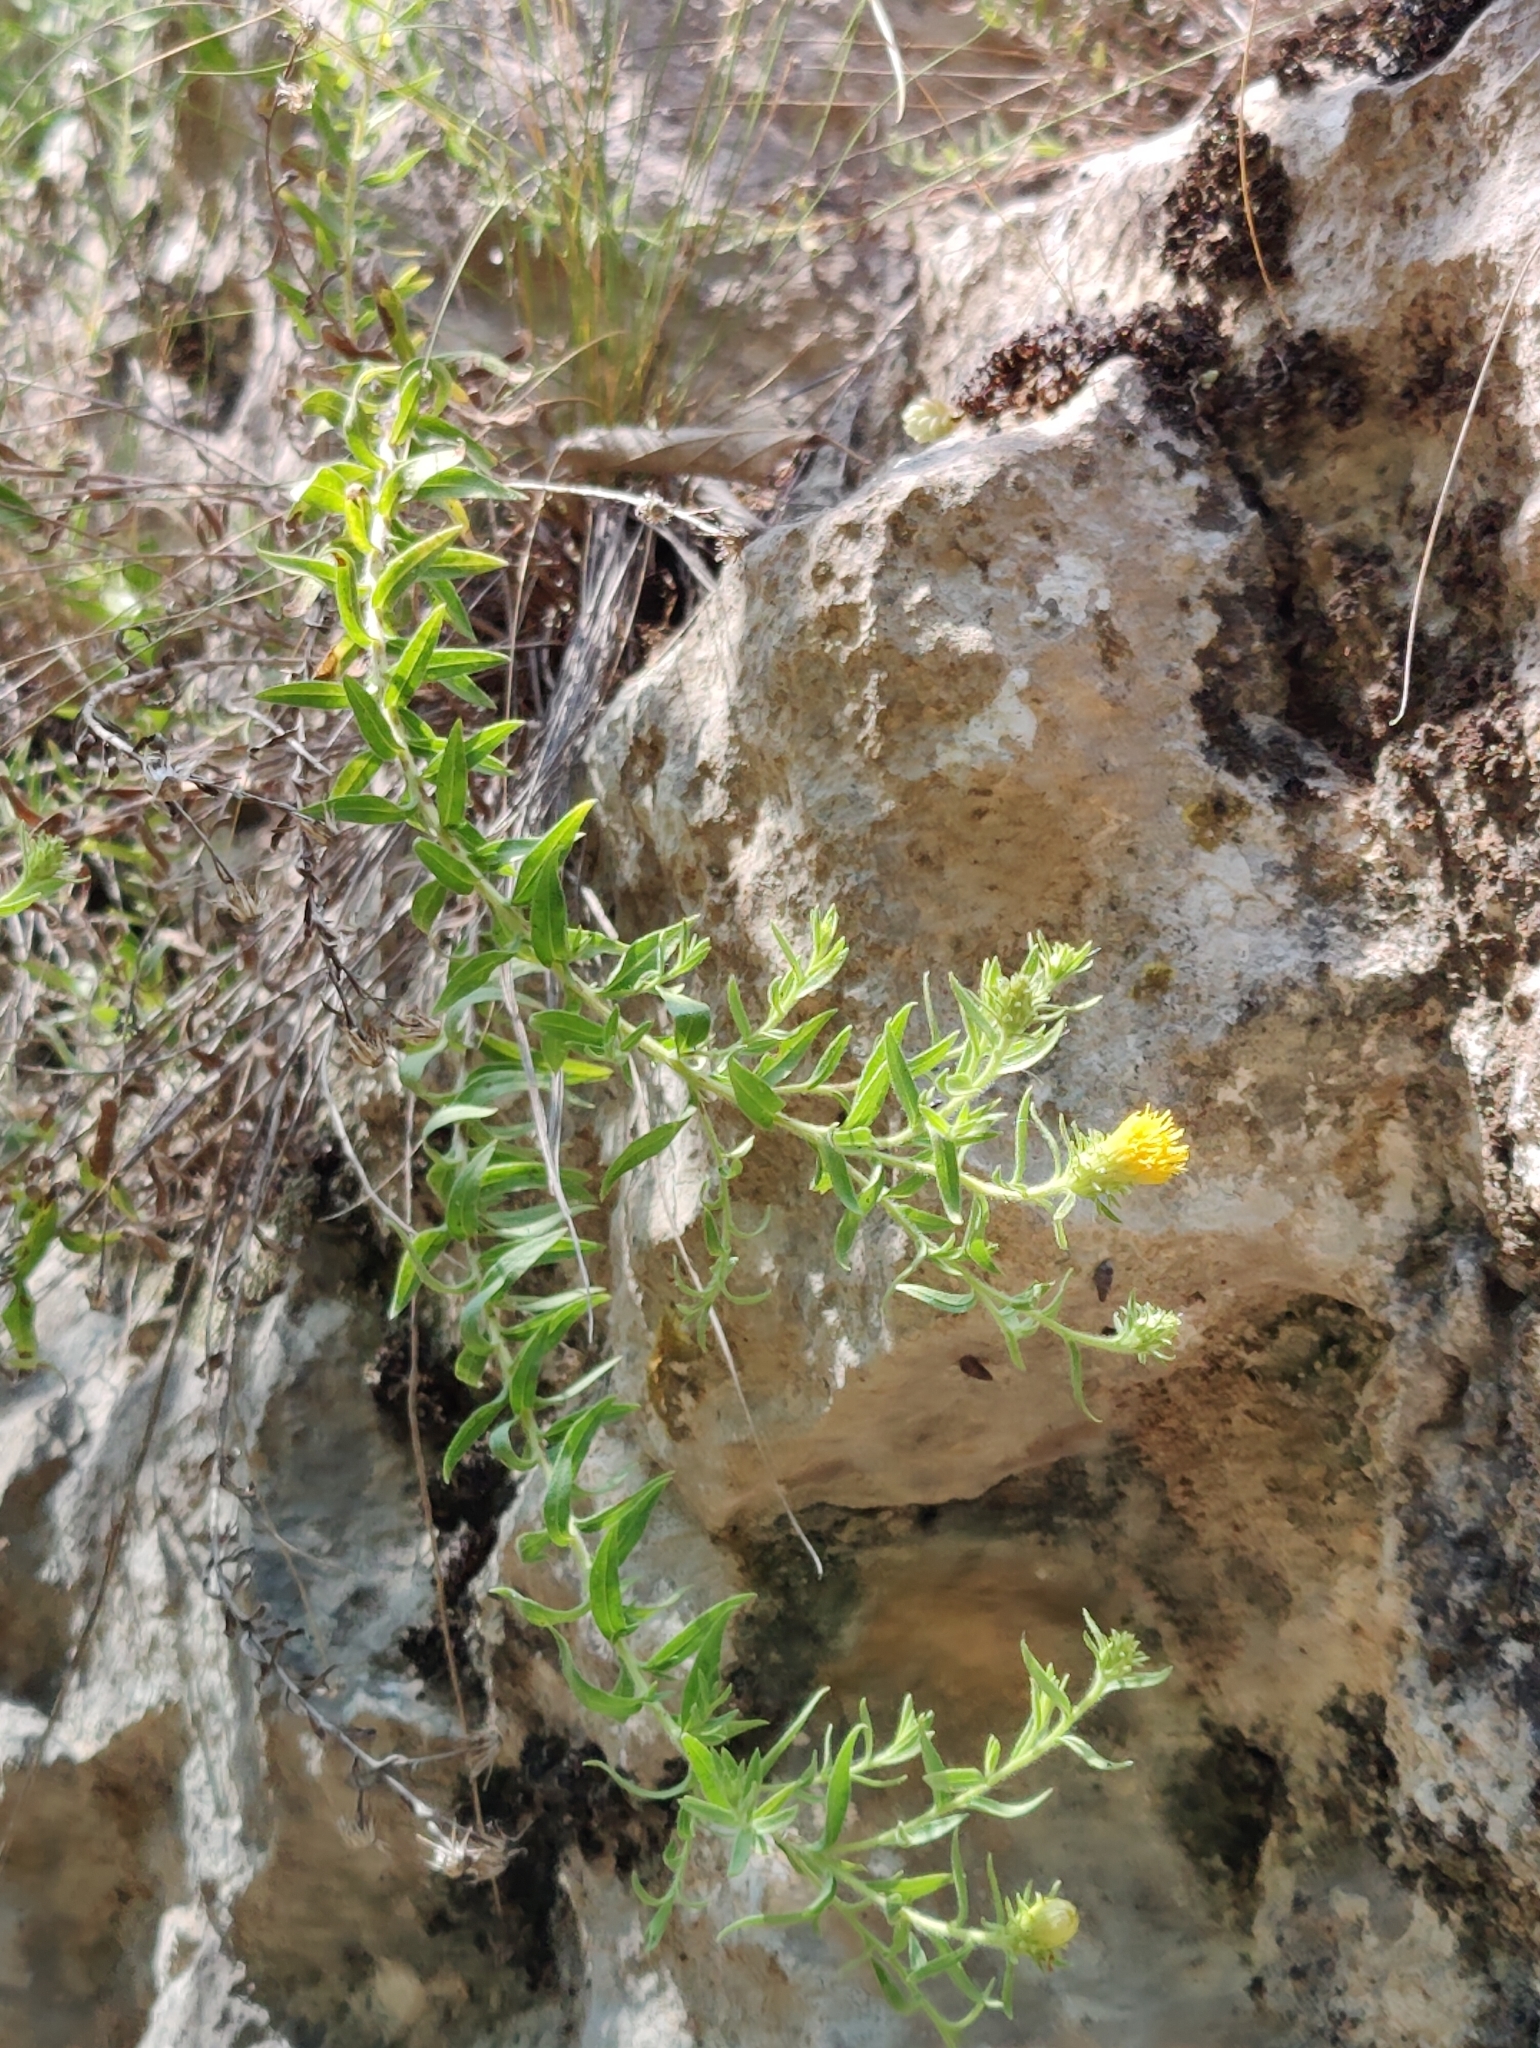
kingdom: Plantae
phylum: Tracheophyta
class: Magnoliopsida
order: Asterales
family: Asteraceae
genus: Chiliadenus
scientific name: Chiliadenus glutinosus
